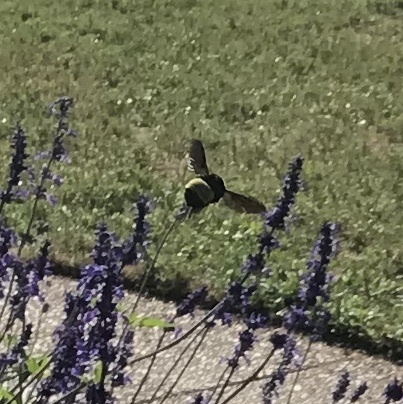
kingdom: Animalia
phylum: Arthropoda
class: Insecta
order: Hymenoptera
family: Apidae
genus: Bombus
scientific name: Bombus pensylvanicus
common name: Bumble bee
